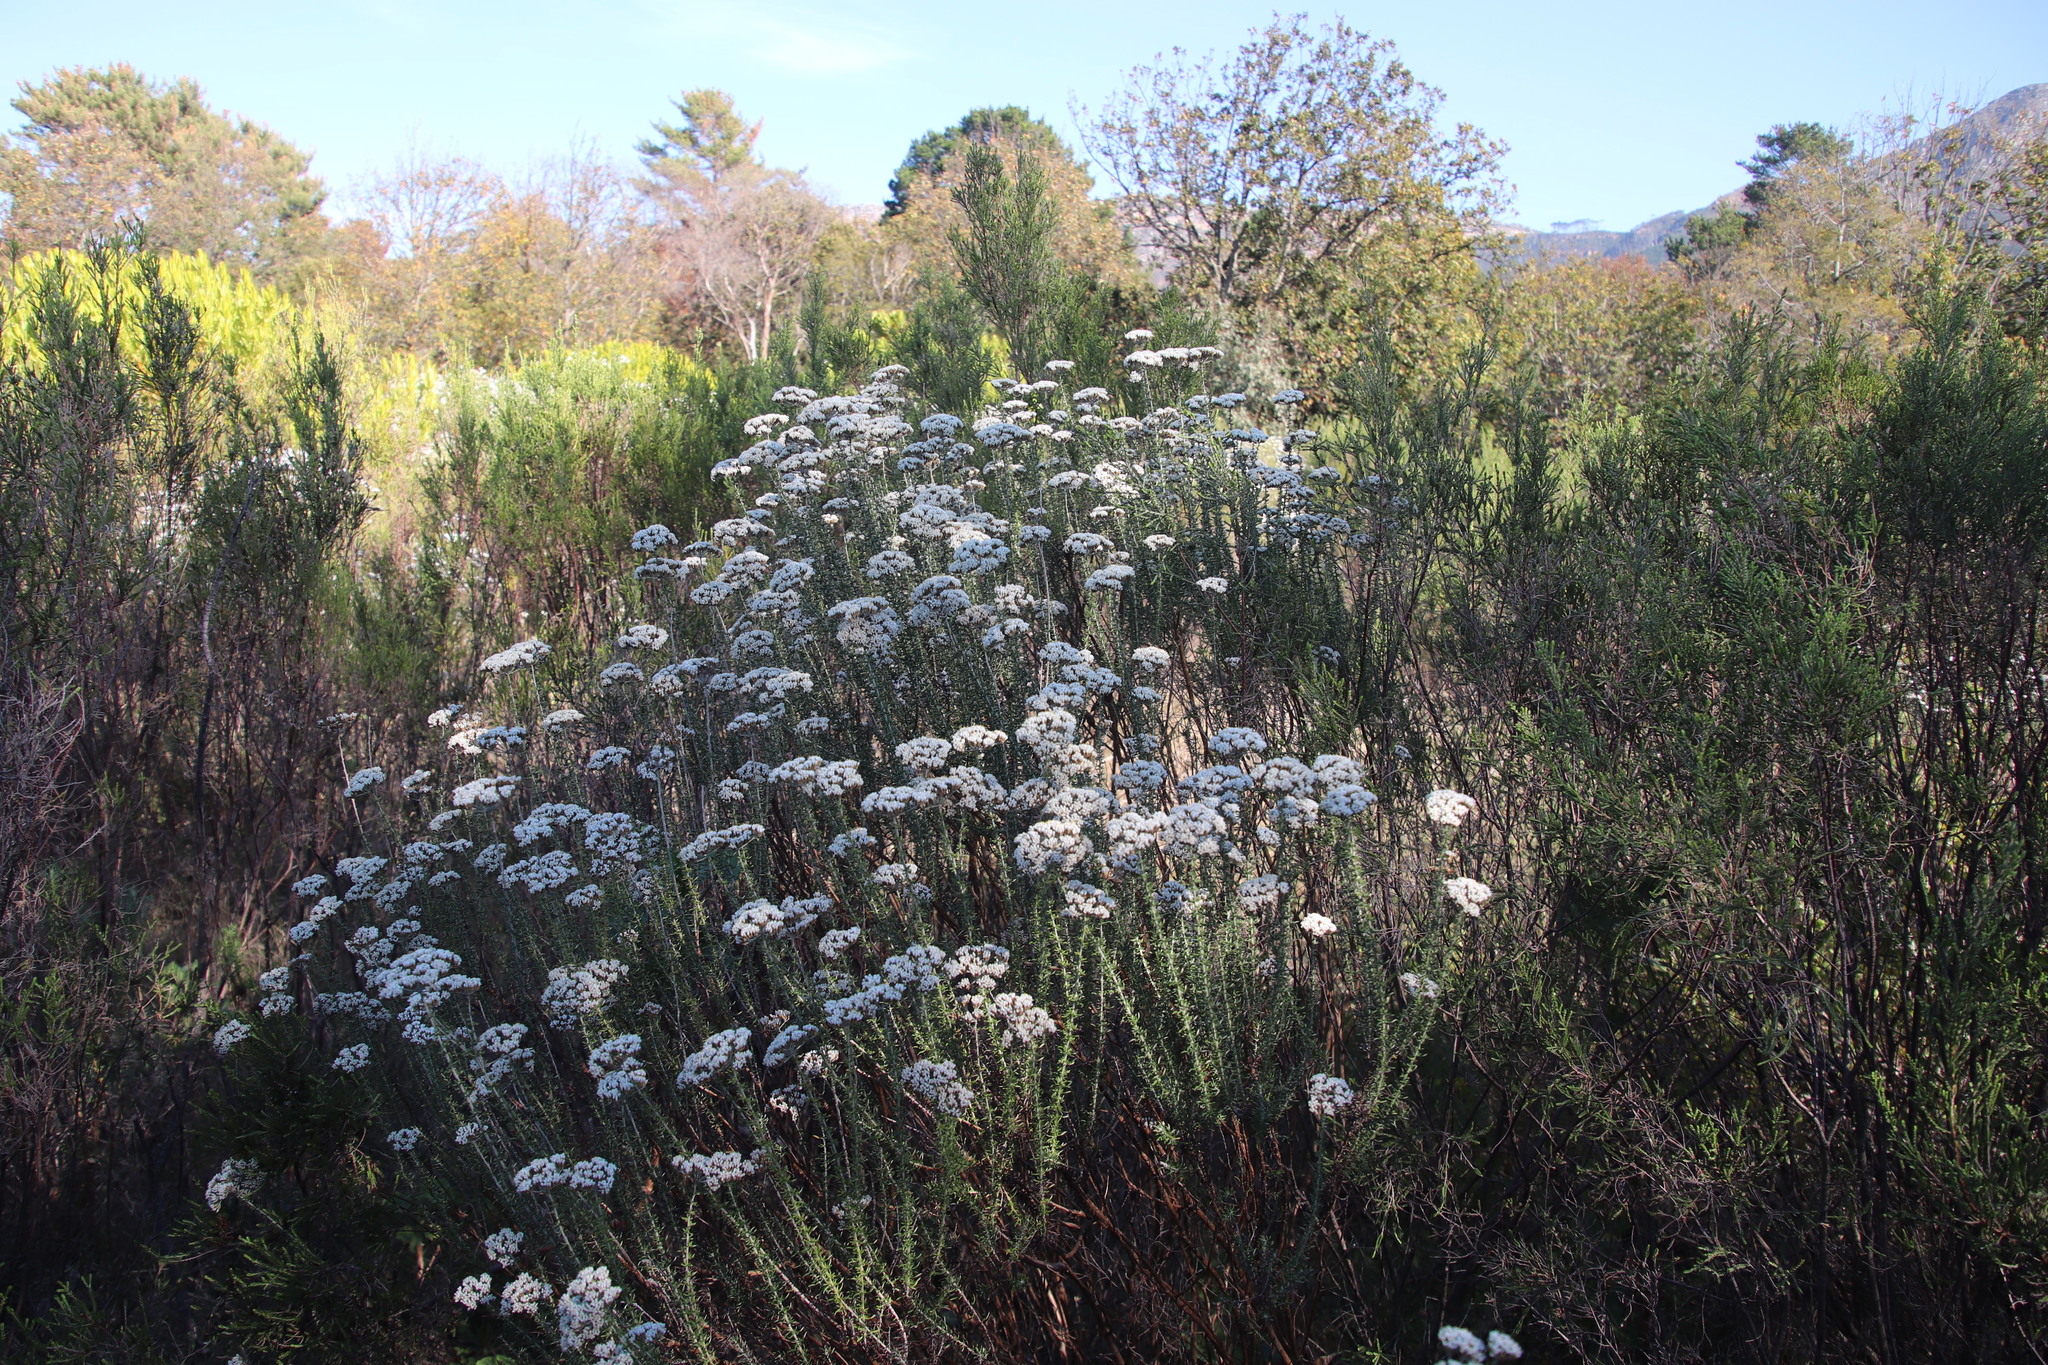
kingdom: Plantae
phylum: Tracheophyta
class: Magnoliopsida
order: Asterales
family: Asteraceae
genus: Metalasia
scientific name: Metalasia densa
